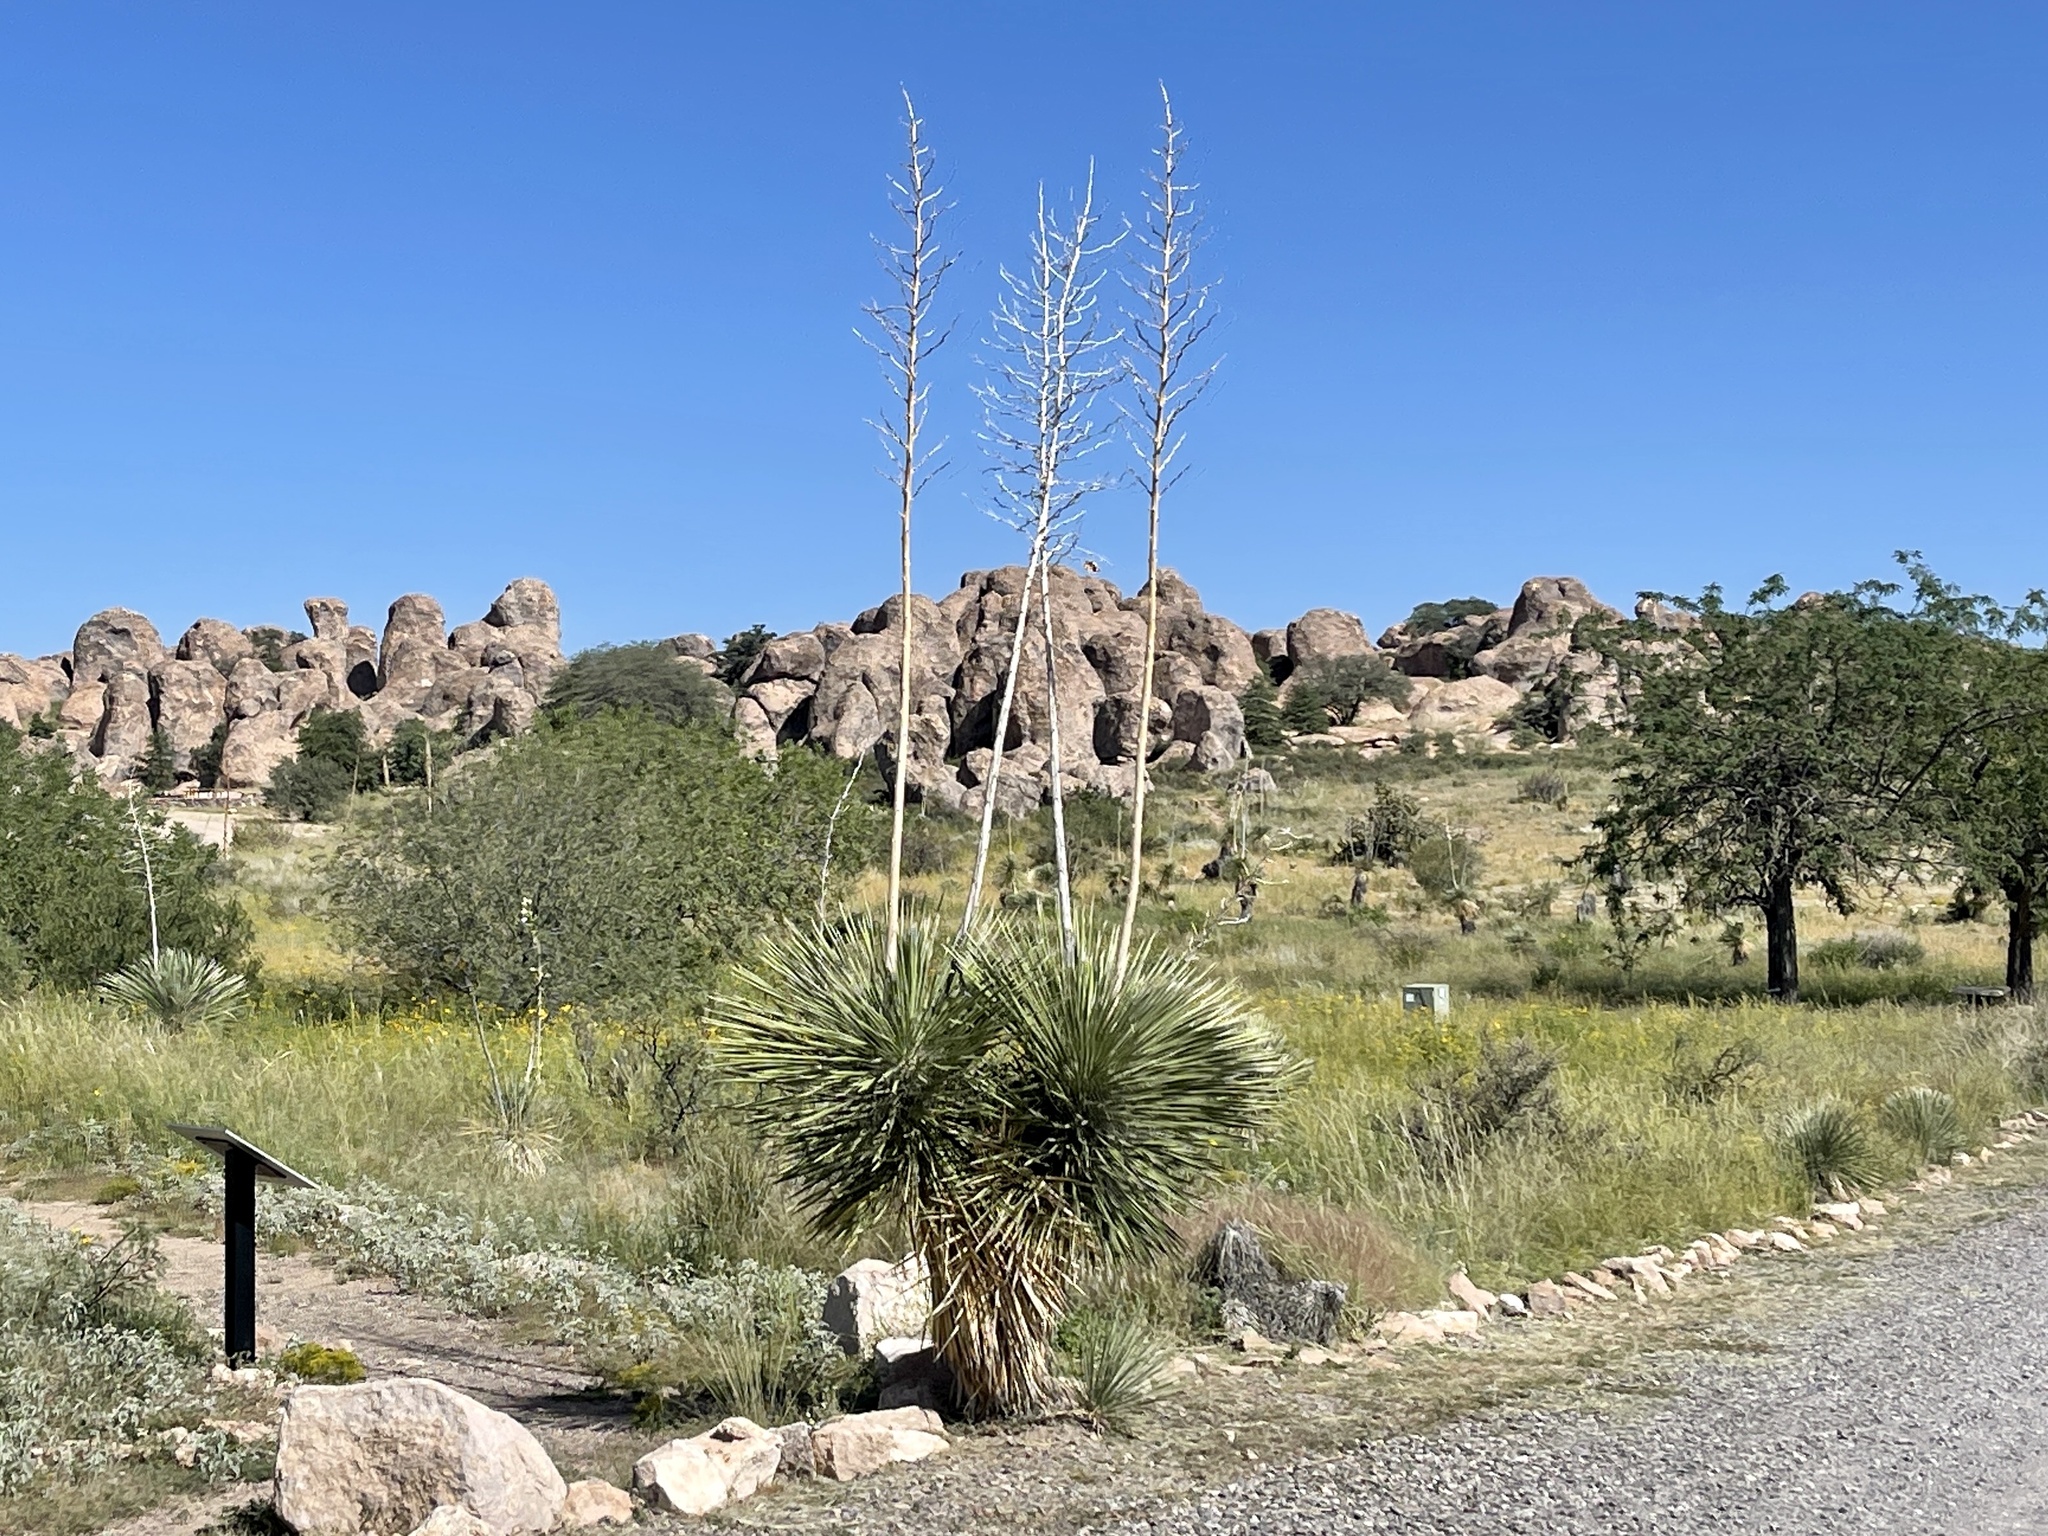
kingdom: Plantae
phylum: Tracheophyta
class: Liliopsida
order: Asparagales
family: Asparagaceae
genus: Yucca
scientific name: Yucca elata
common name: Palmella
